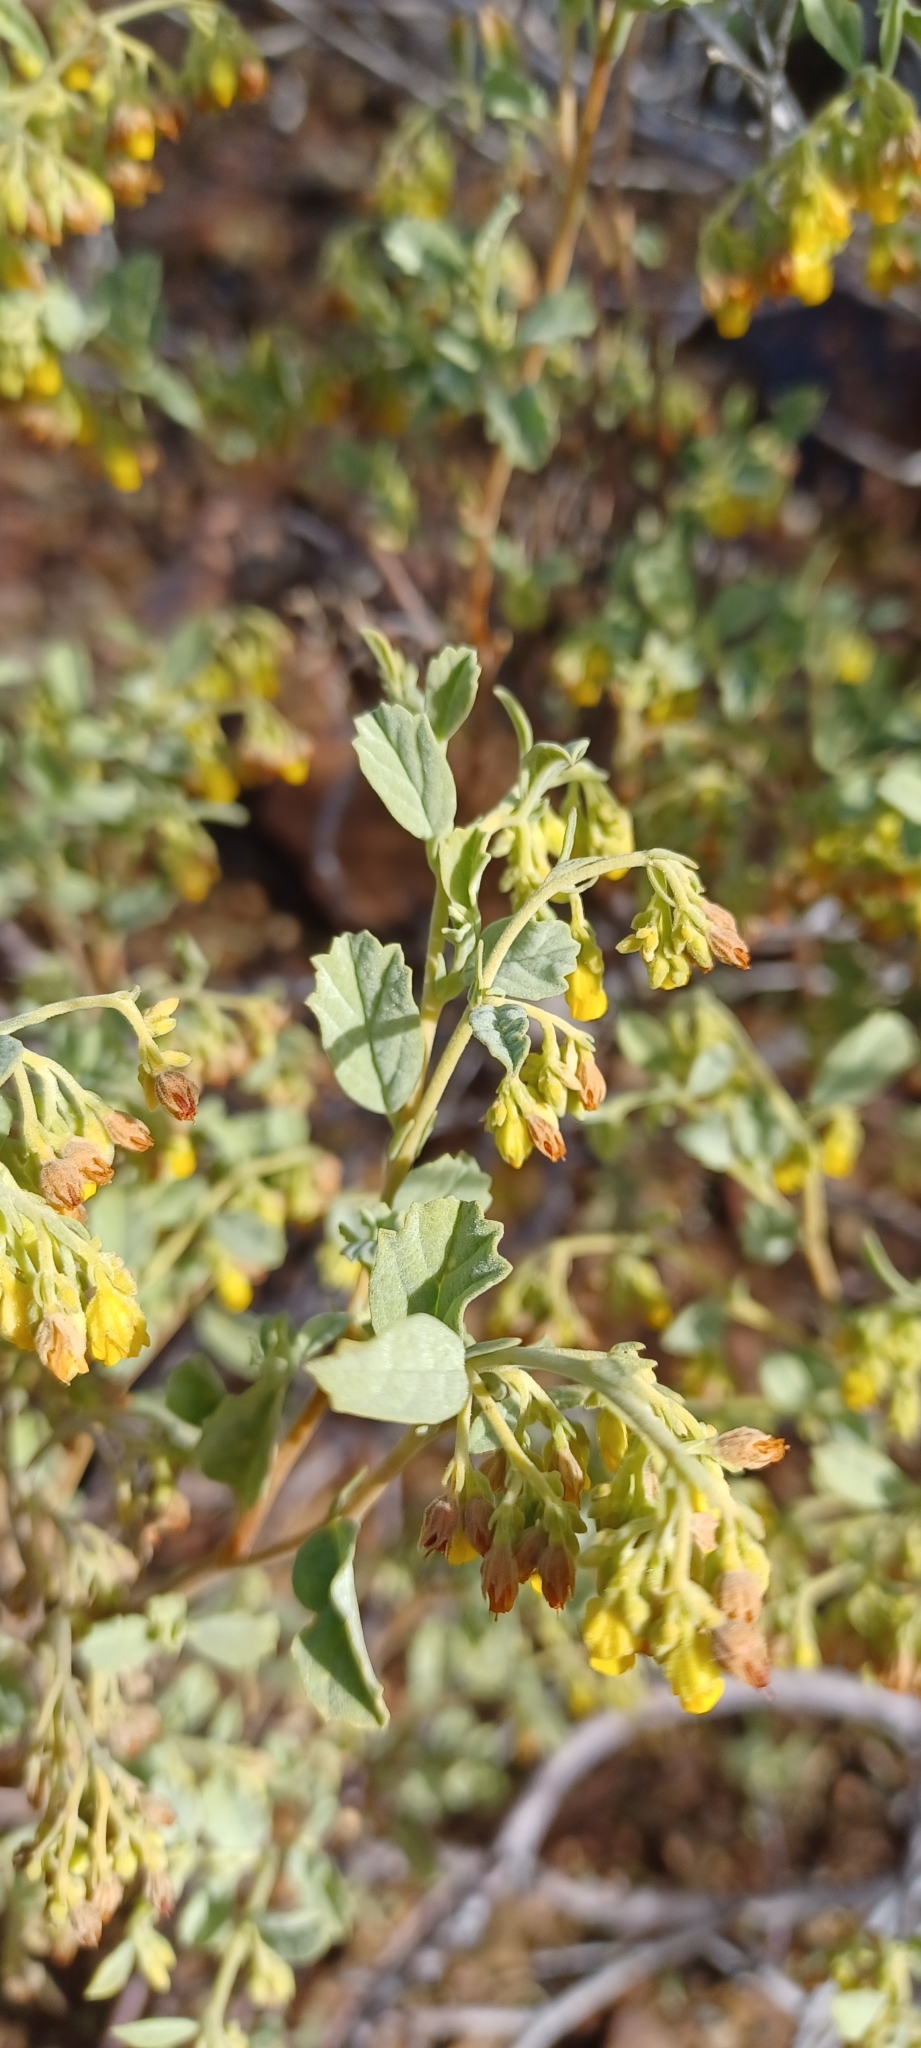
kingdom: Plantae
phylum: Tracheophyta
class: Magnoliopsida
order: Malvales
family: Malvaceae
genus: Hermannia
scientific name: Hermannia holosericea
